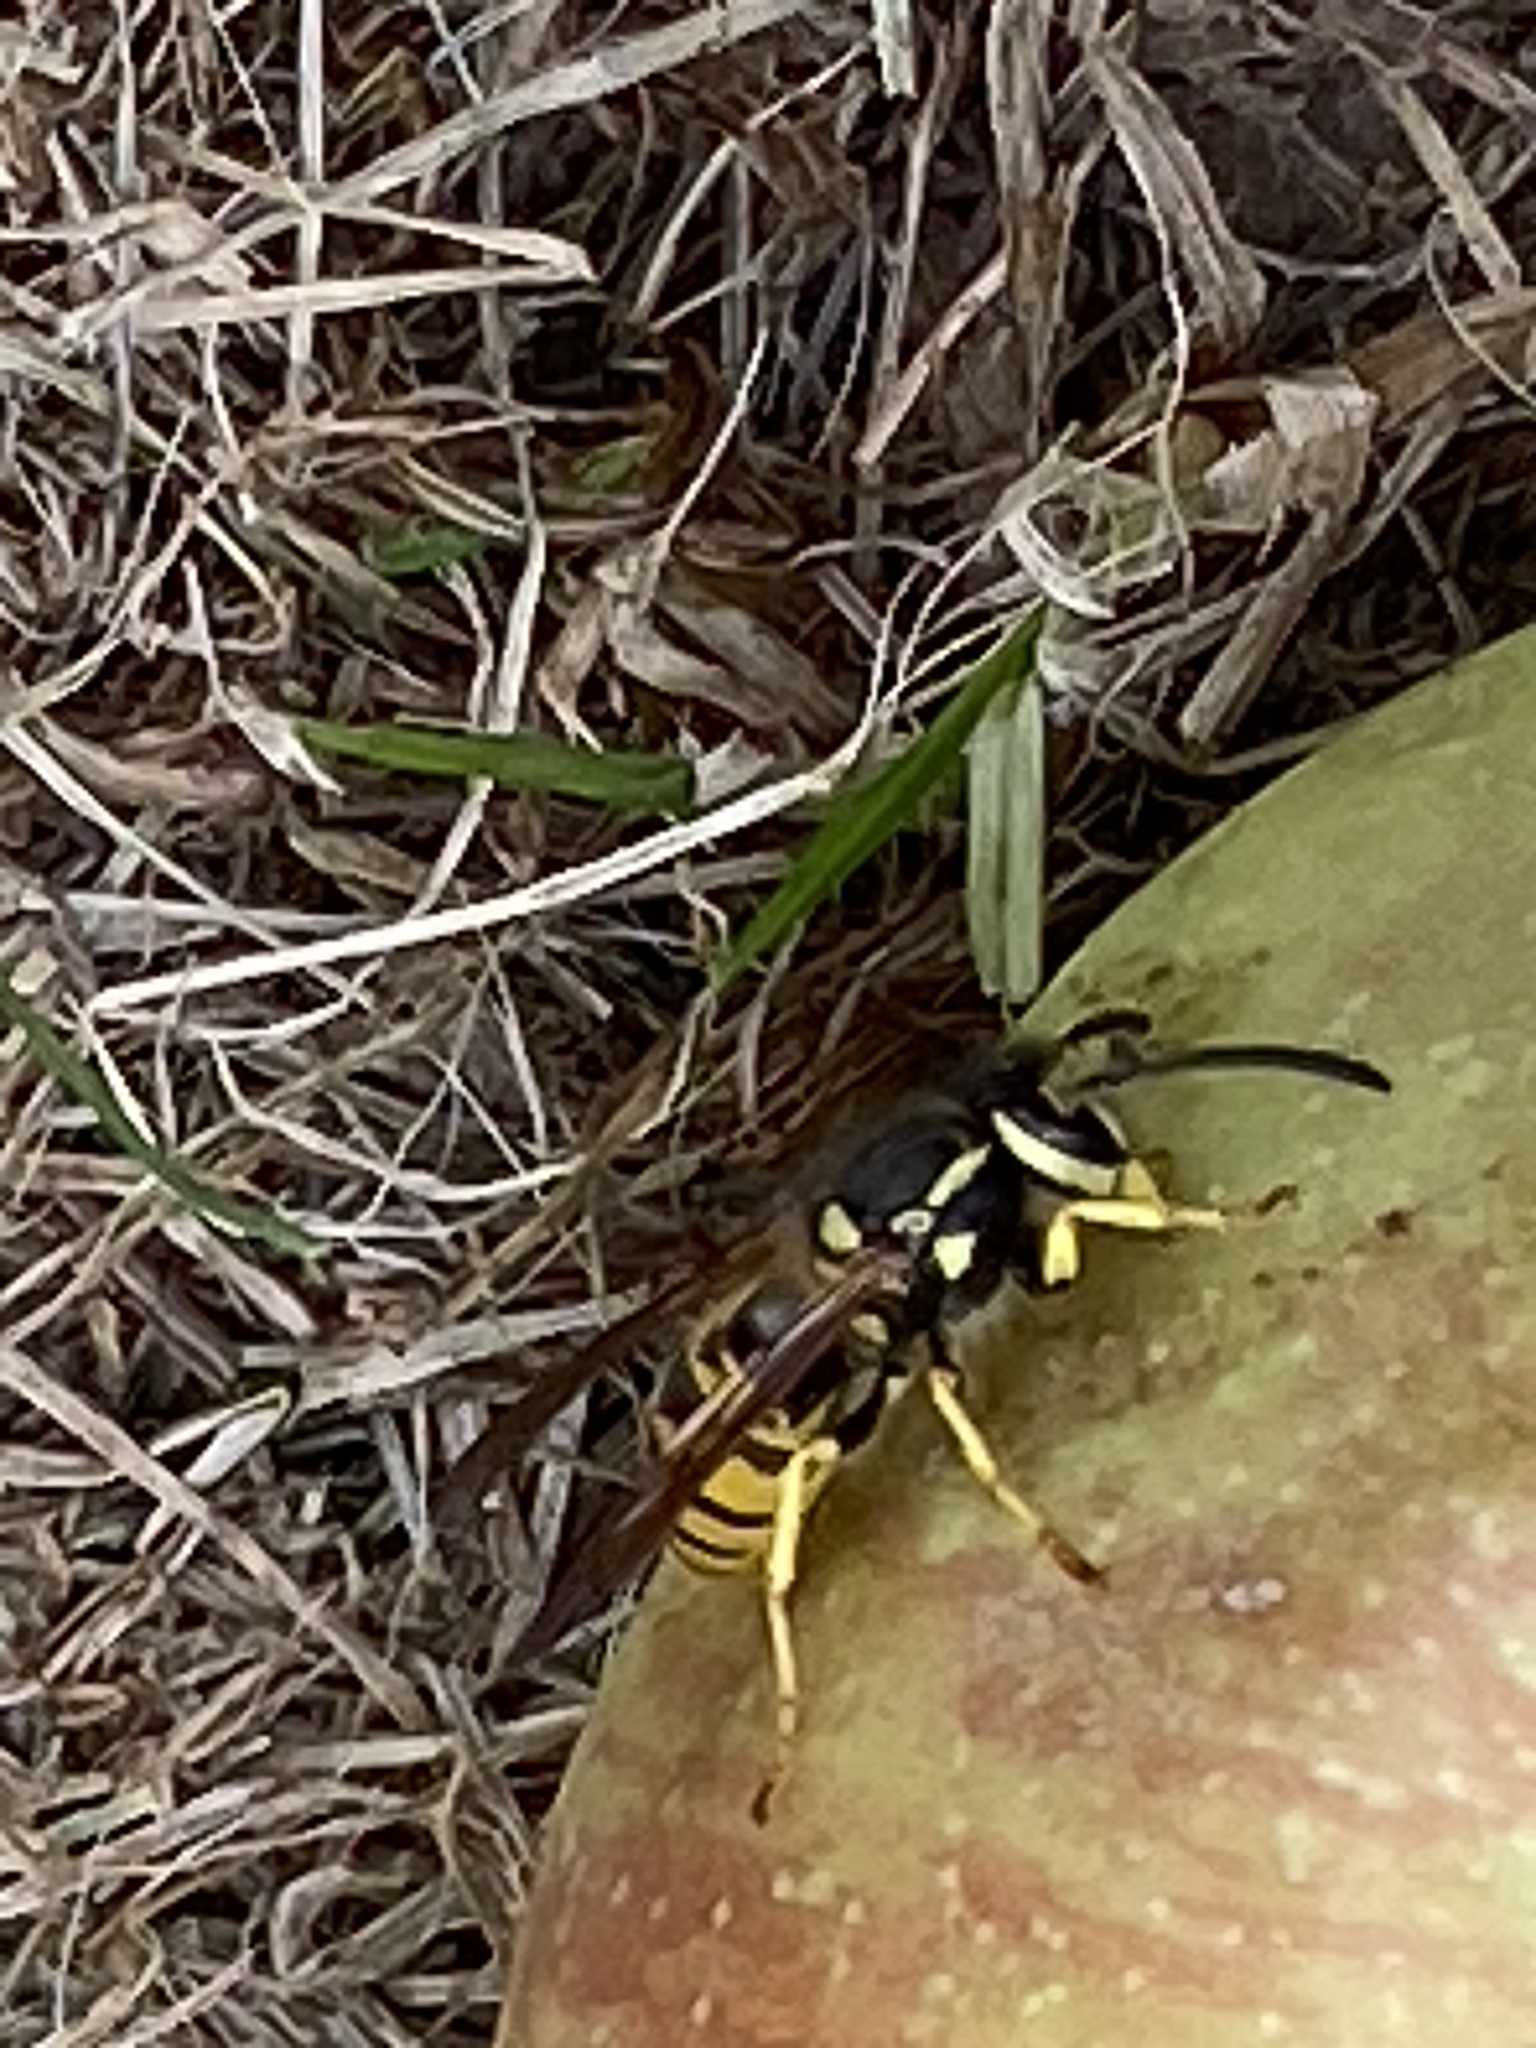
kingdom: Animalia
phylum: Arthropoda
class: Insecta
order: Hymenoptera
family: Vespidae
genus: Vespula
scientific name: Vespula germanica
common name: German wasp
